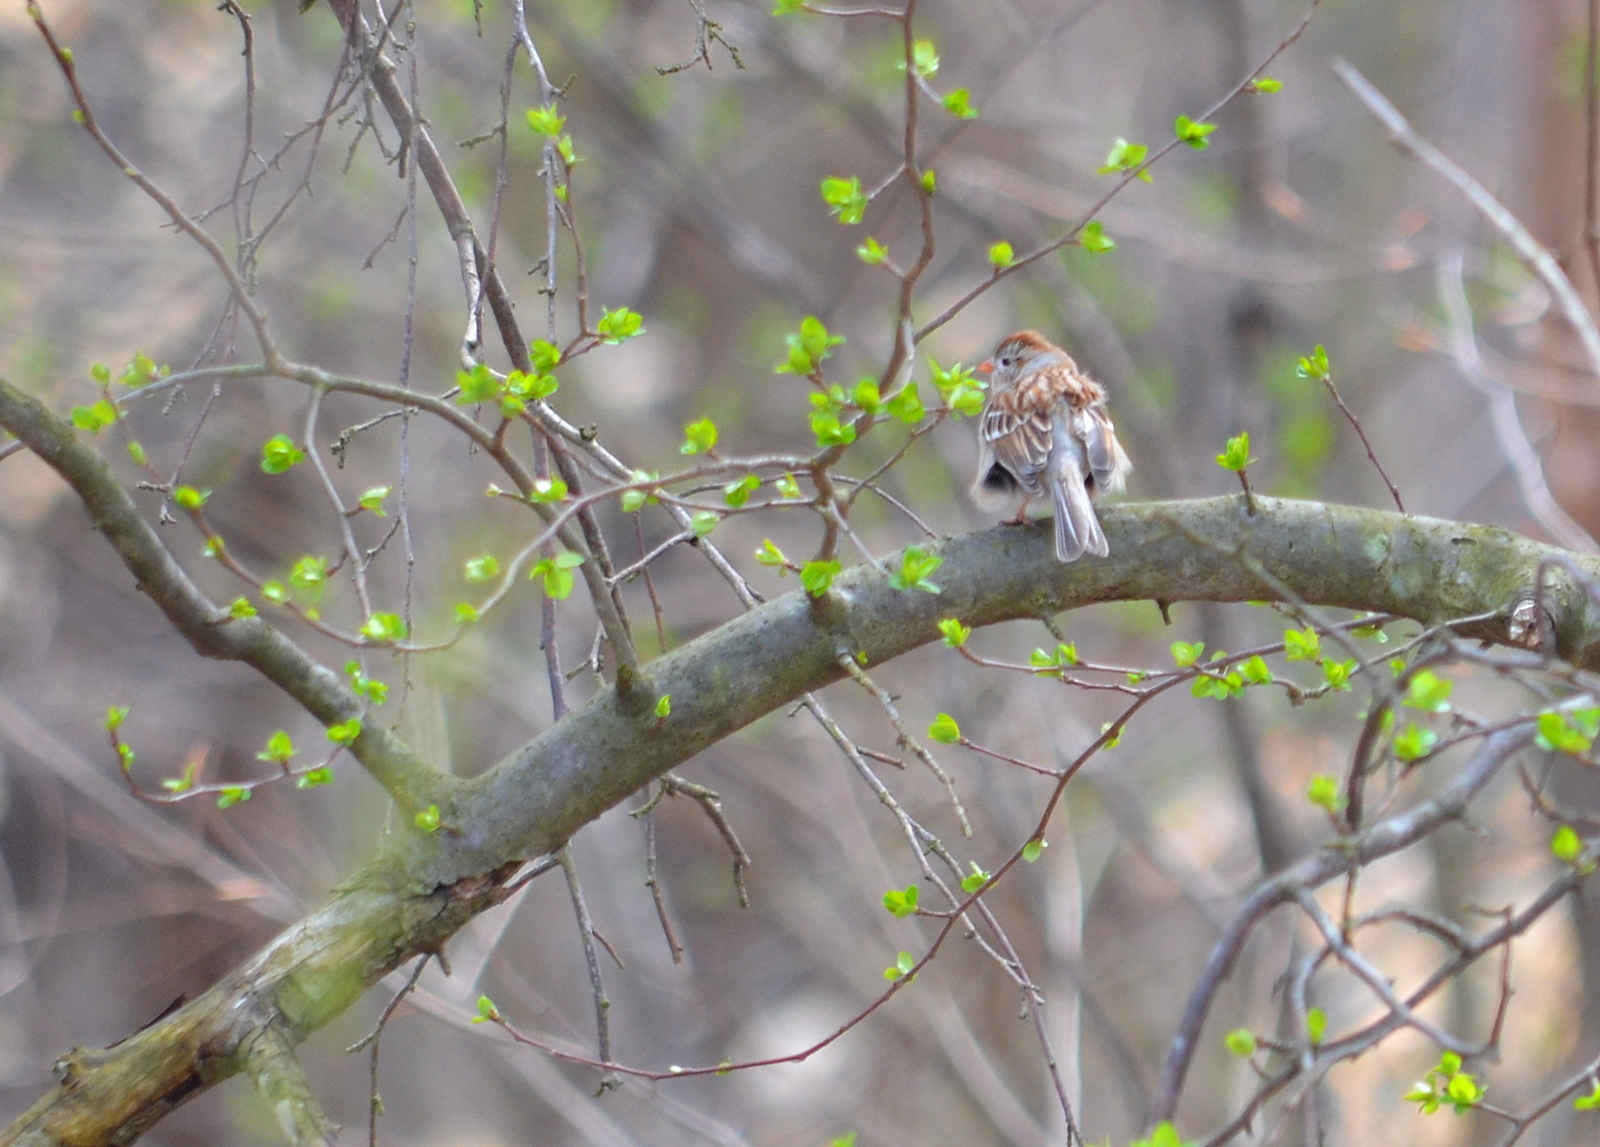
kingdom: Animalia
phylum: Chordata
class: Aves
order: Passeriformes
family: Passerellidae
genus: Spizella
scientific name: Spizella pusilla
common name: Field sparrow
